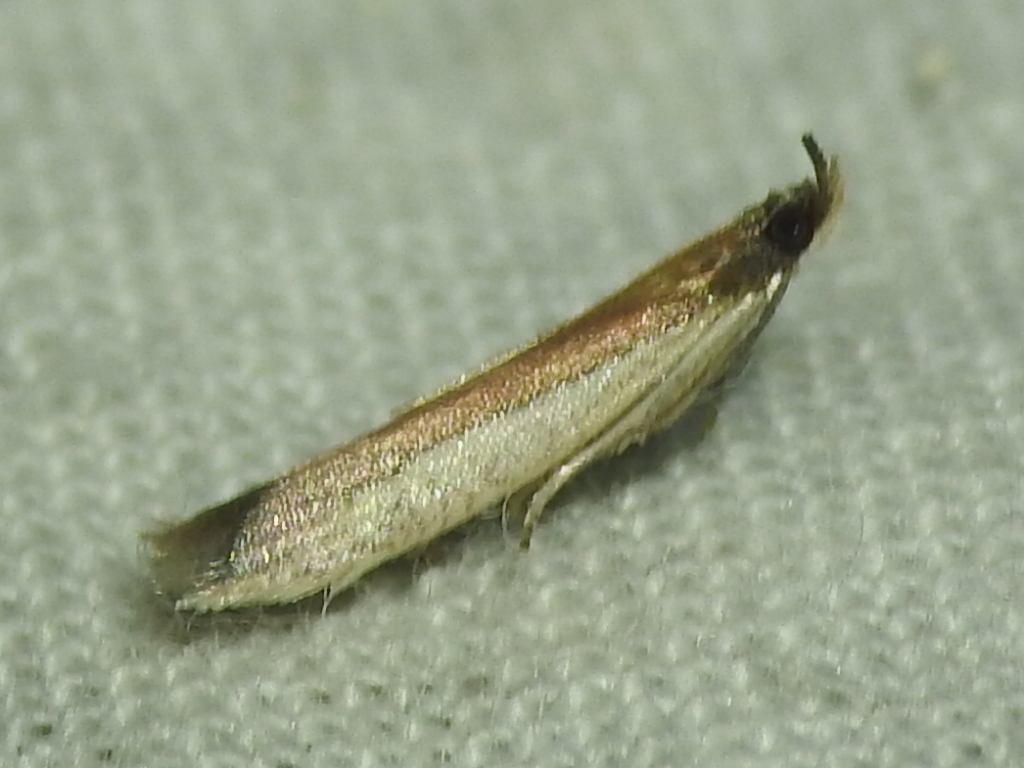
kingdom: Animalia
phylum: Arthropoda
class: Insecta
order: Lepidoptera
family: Pyralidae
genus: Tampa
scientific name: Tampa dimediatella
